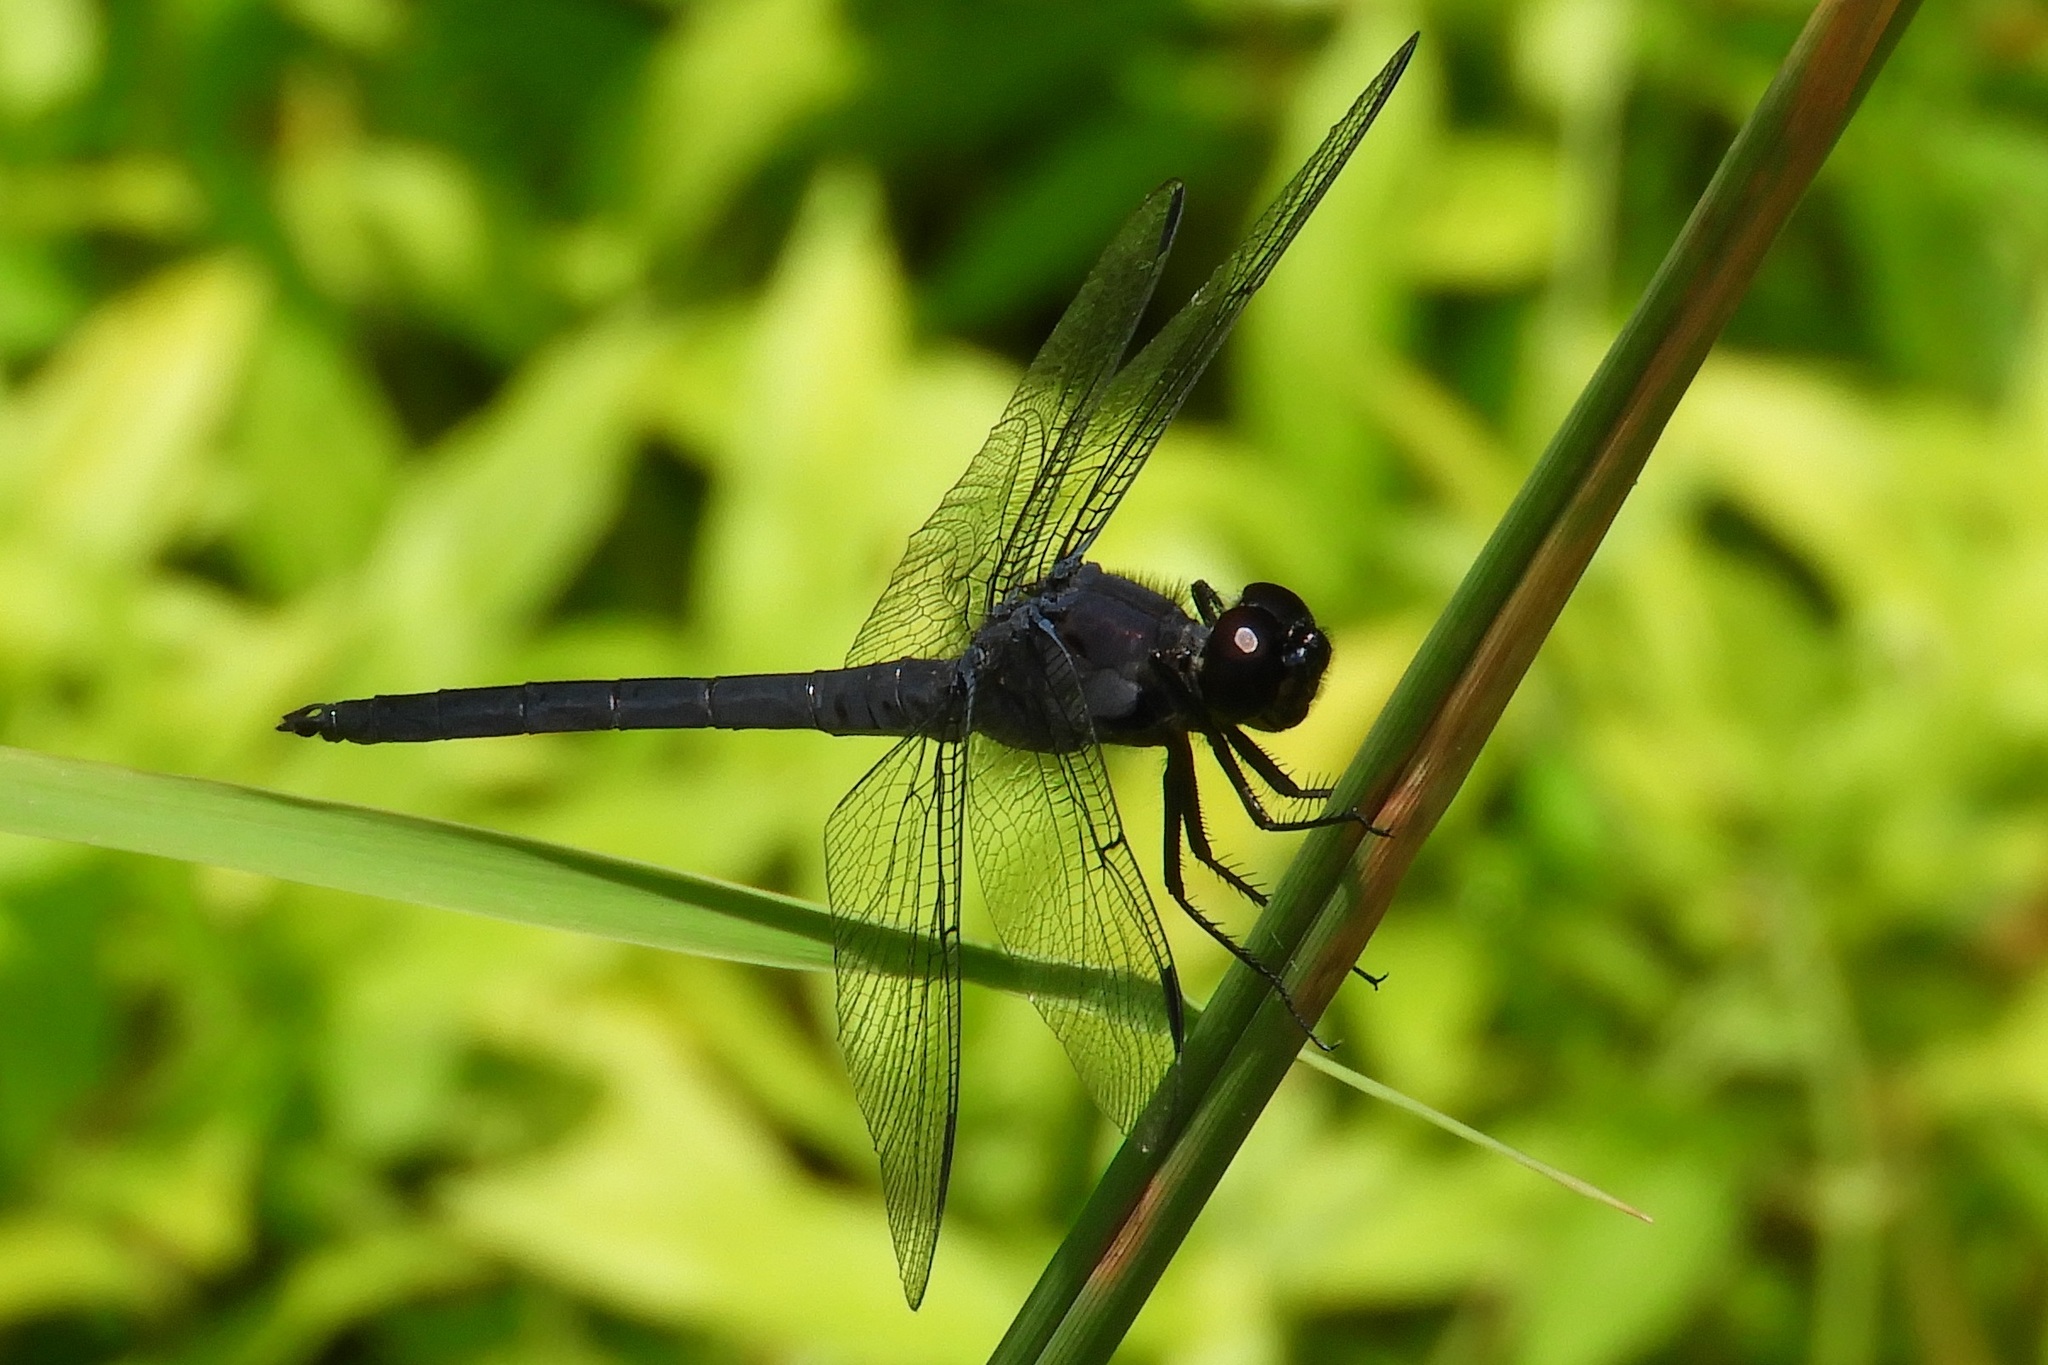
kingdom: Animalia
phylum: Arthropoda
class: Insecta
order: Odonata
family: Libellulidae
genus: Libellula
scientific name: Libellula incesta
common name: Slaty skimmer
